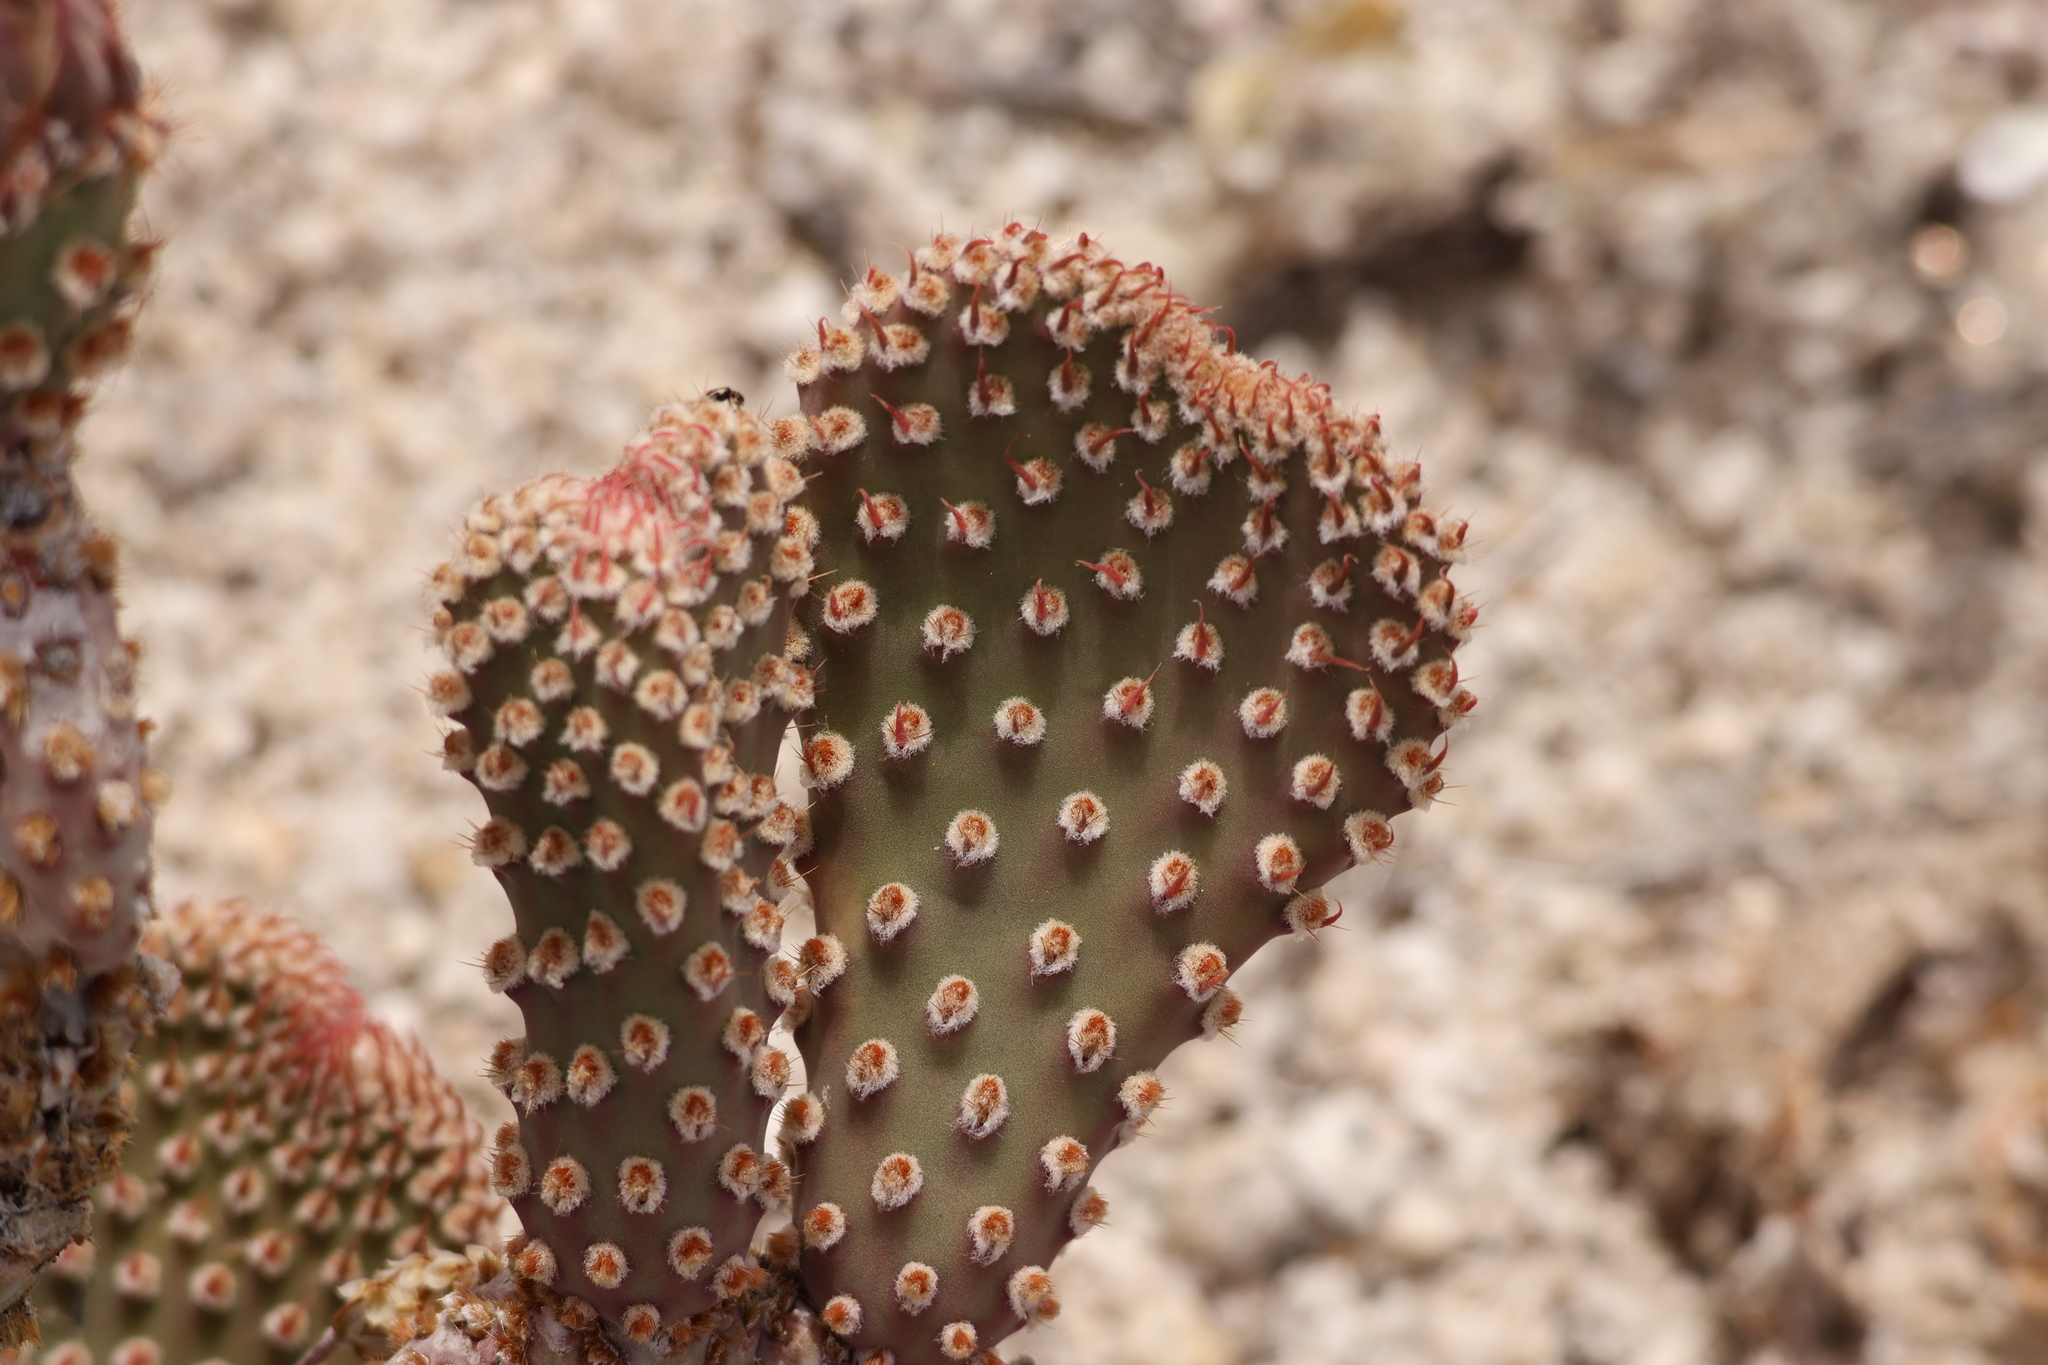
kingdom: Plantae
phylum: Tracheophyta
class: Magnoliopsida
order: Caryophyllales
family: Cactaceae
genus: Opuntia
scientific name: Opuntia basilaris
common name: Beavertail prickly-pear
